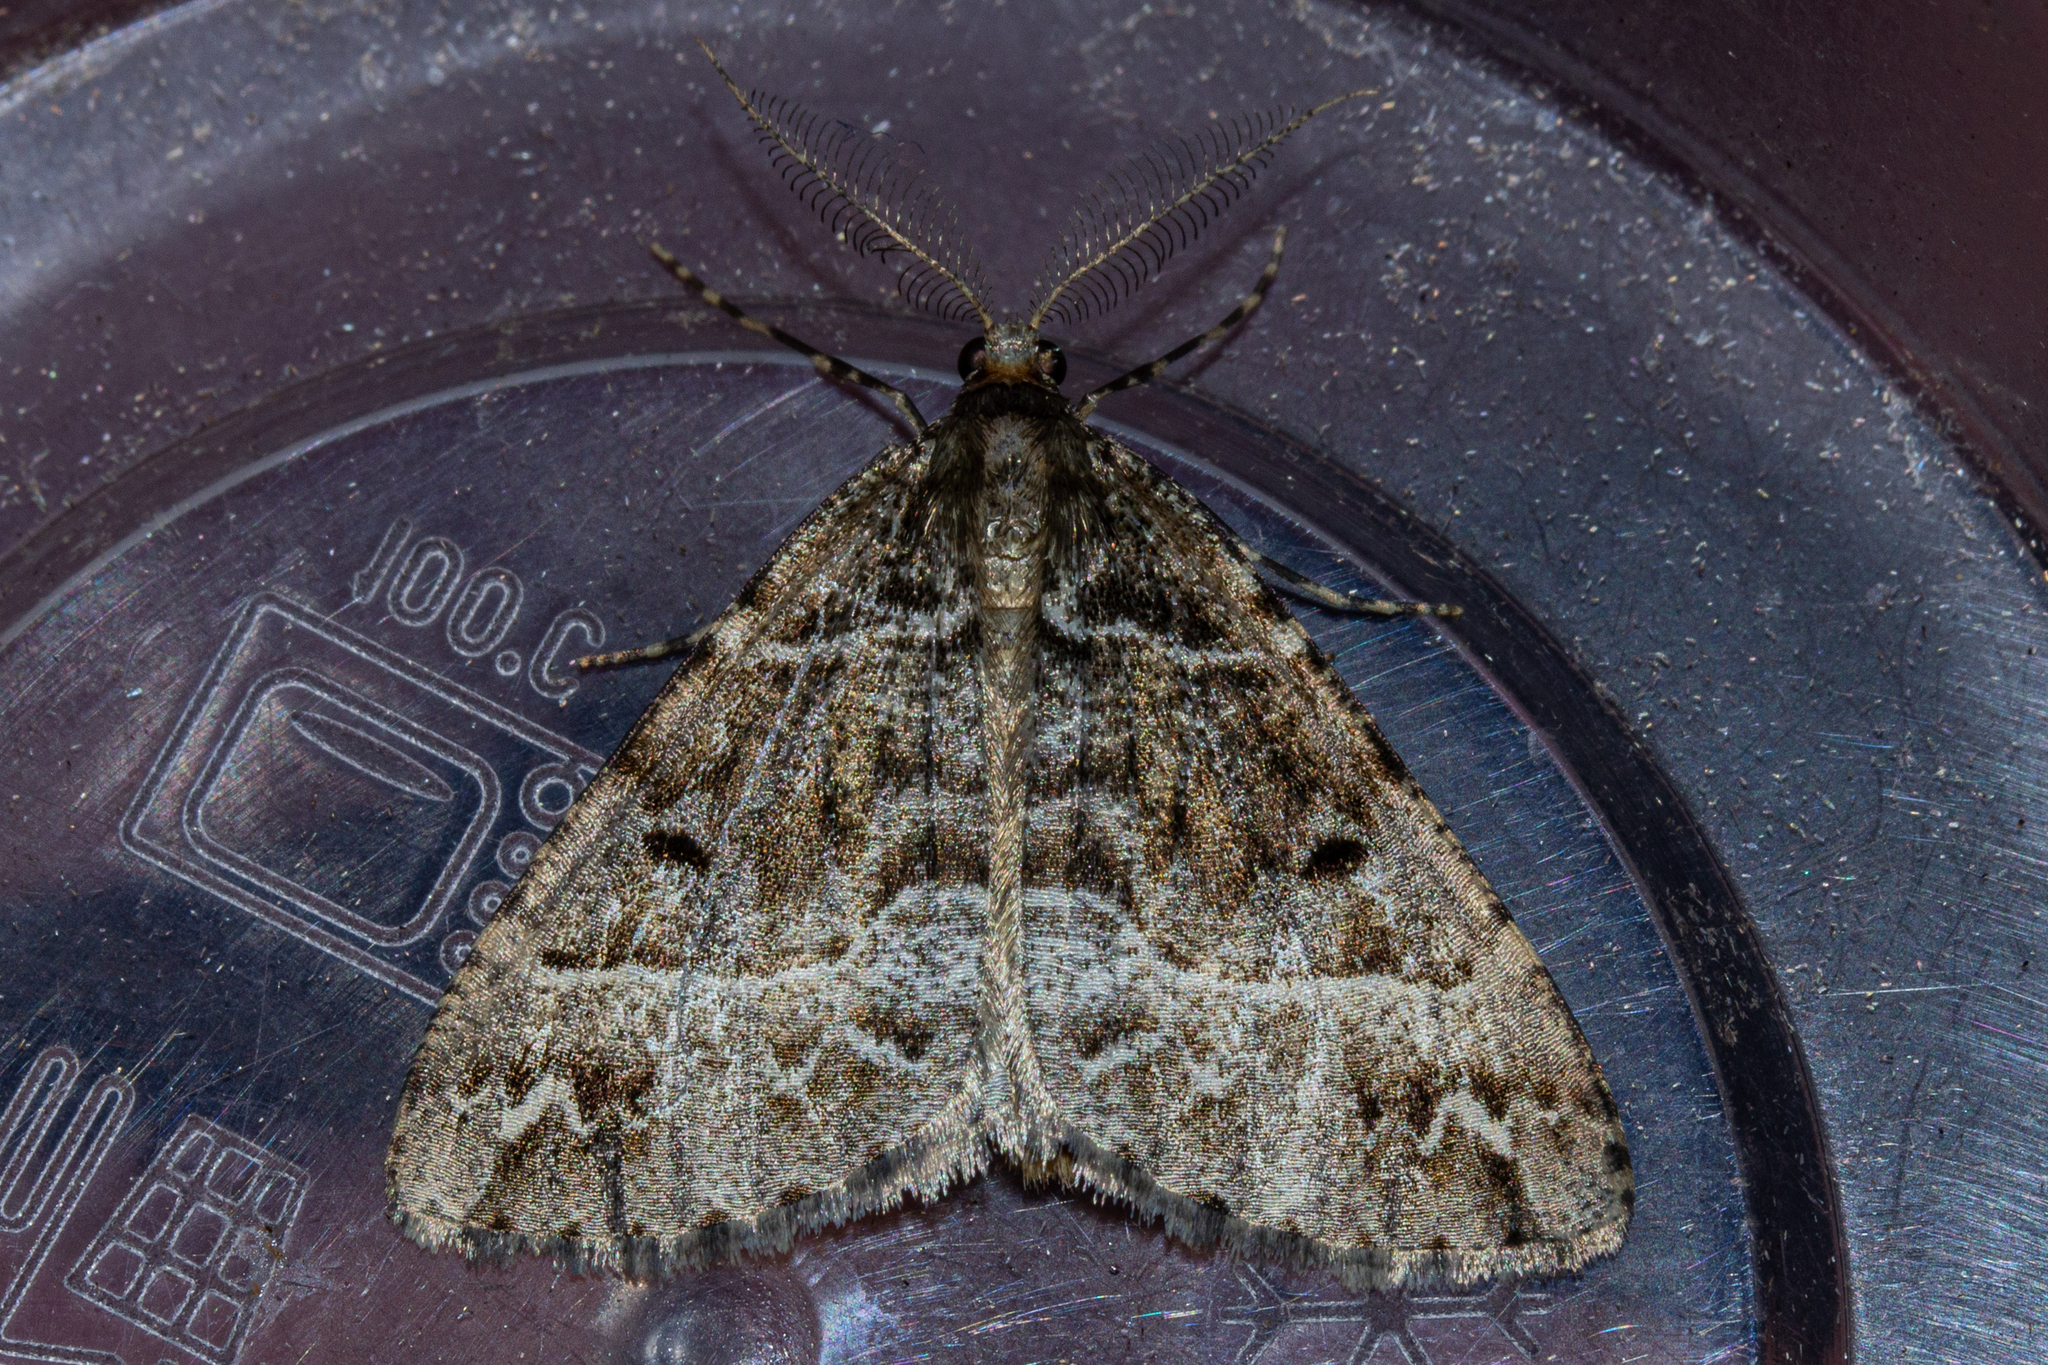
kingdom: Animalia
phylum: Arthropoda
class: Insecta
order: Lepidoptera
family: Geometridae
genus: Pseudocoremia
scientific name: Pseudocoremia melinata
